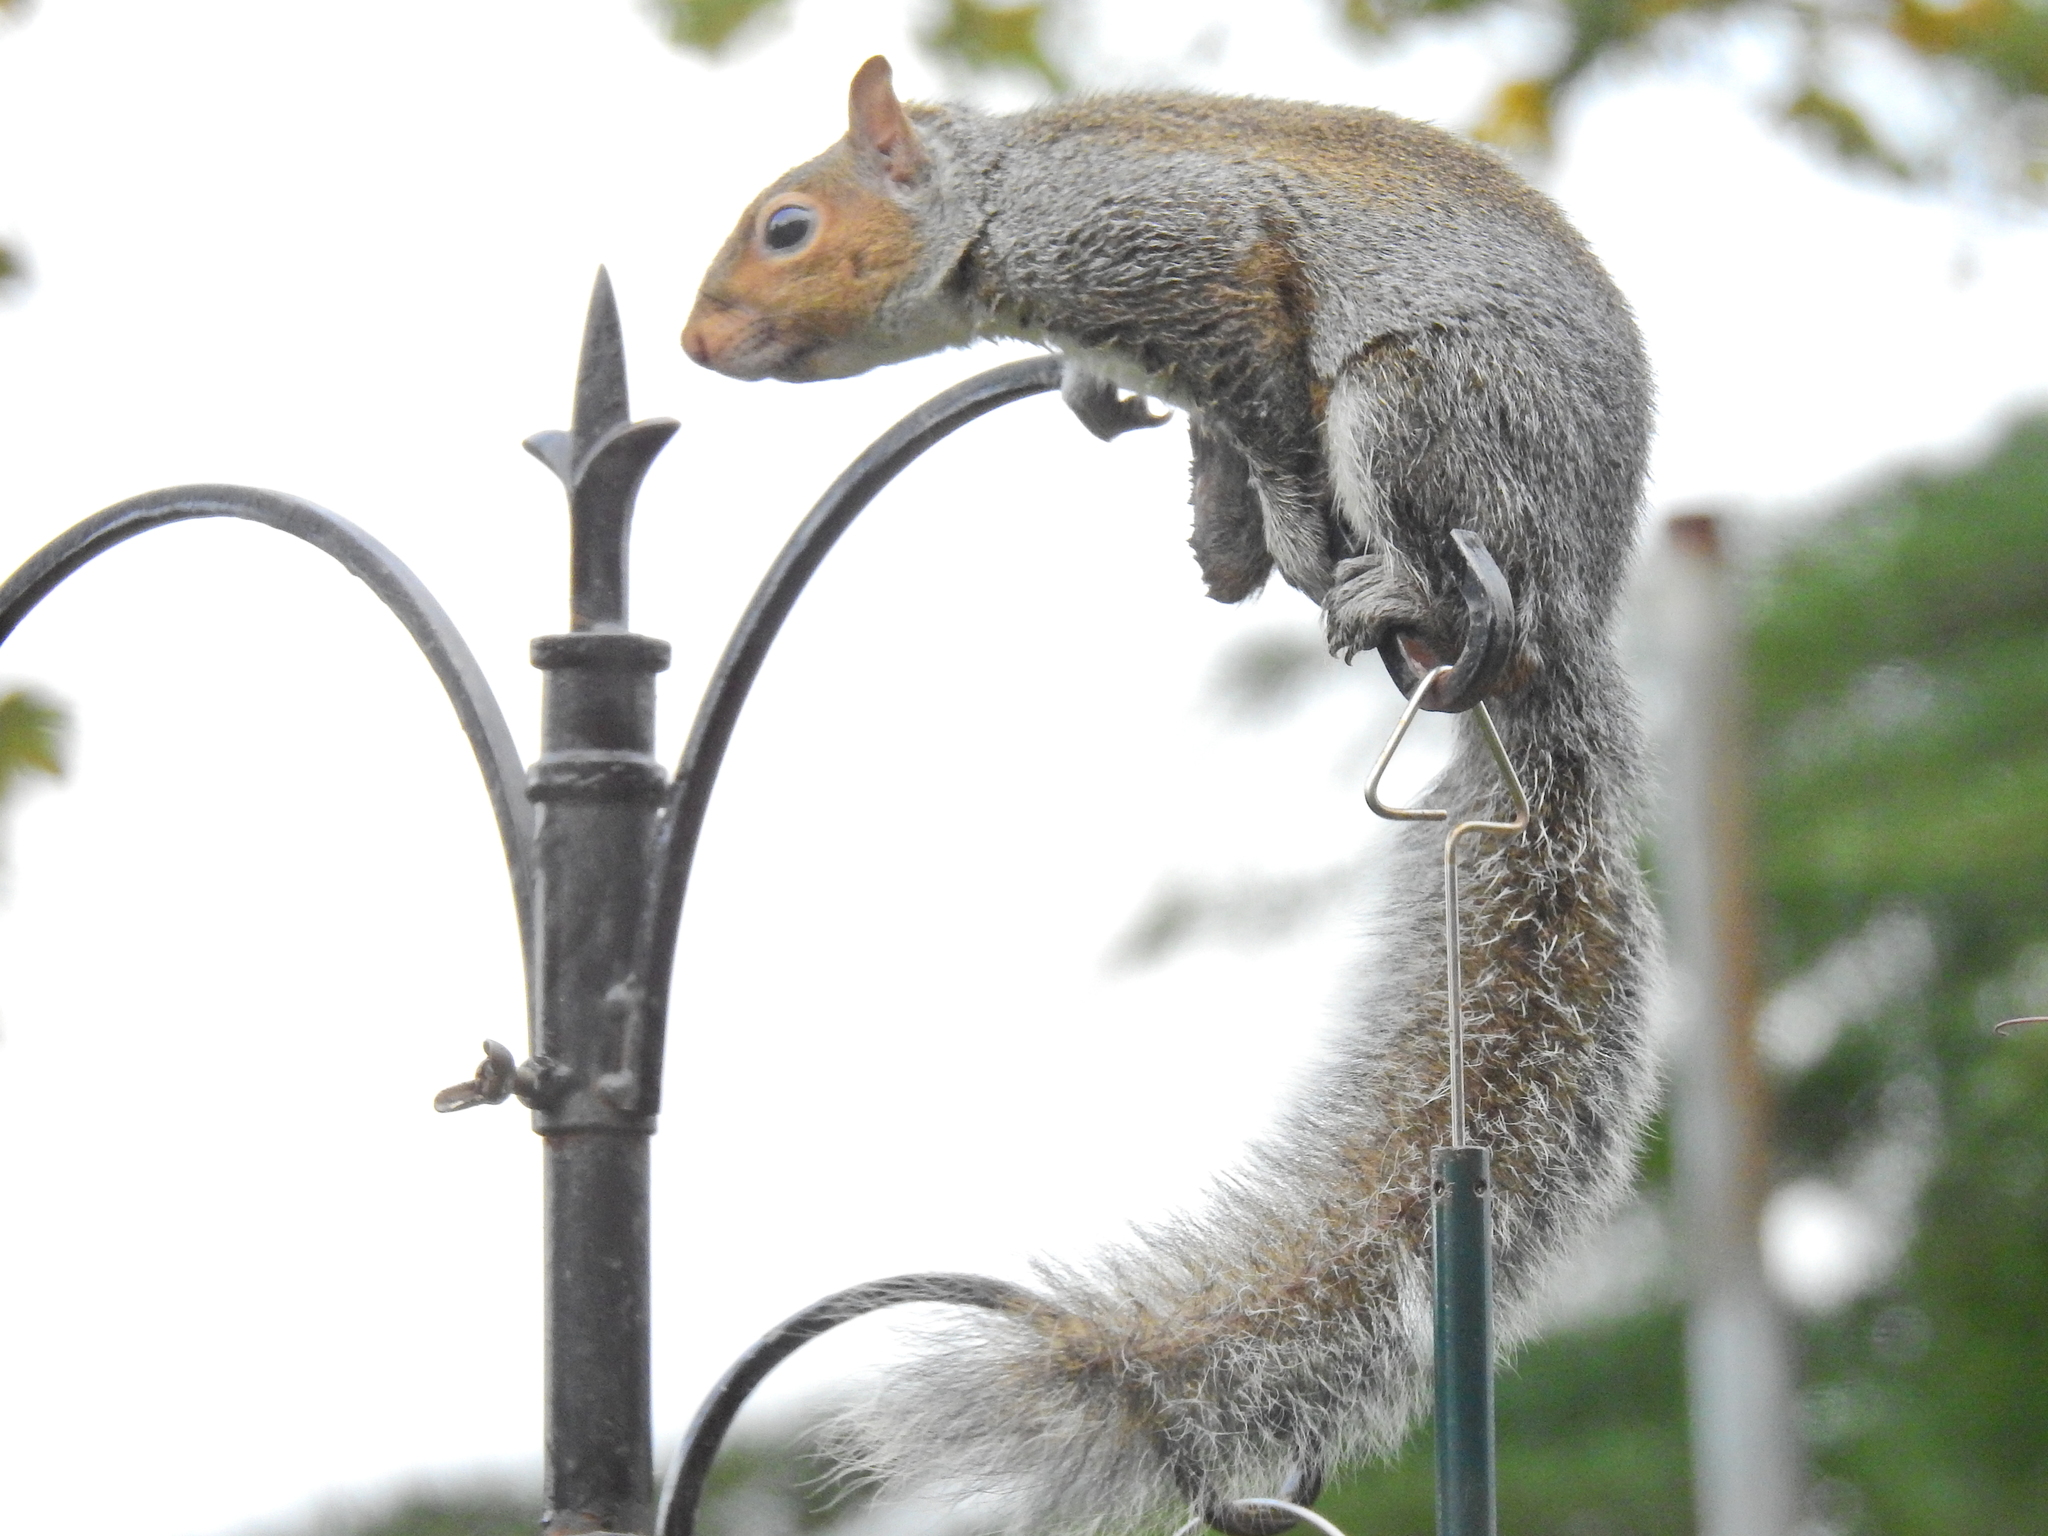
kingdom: Animalia
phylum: Chordata
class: Mammalia
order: Rodentia
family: Sciuridae
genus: Sciurus
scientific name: Sciurus carolinensis
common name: Eastern gray squirrel
